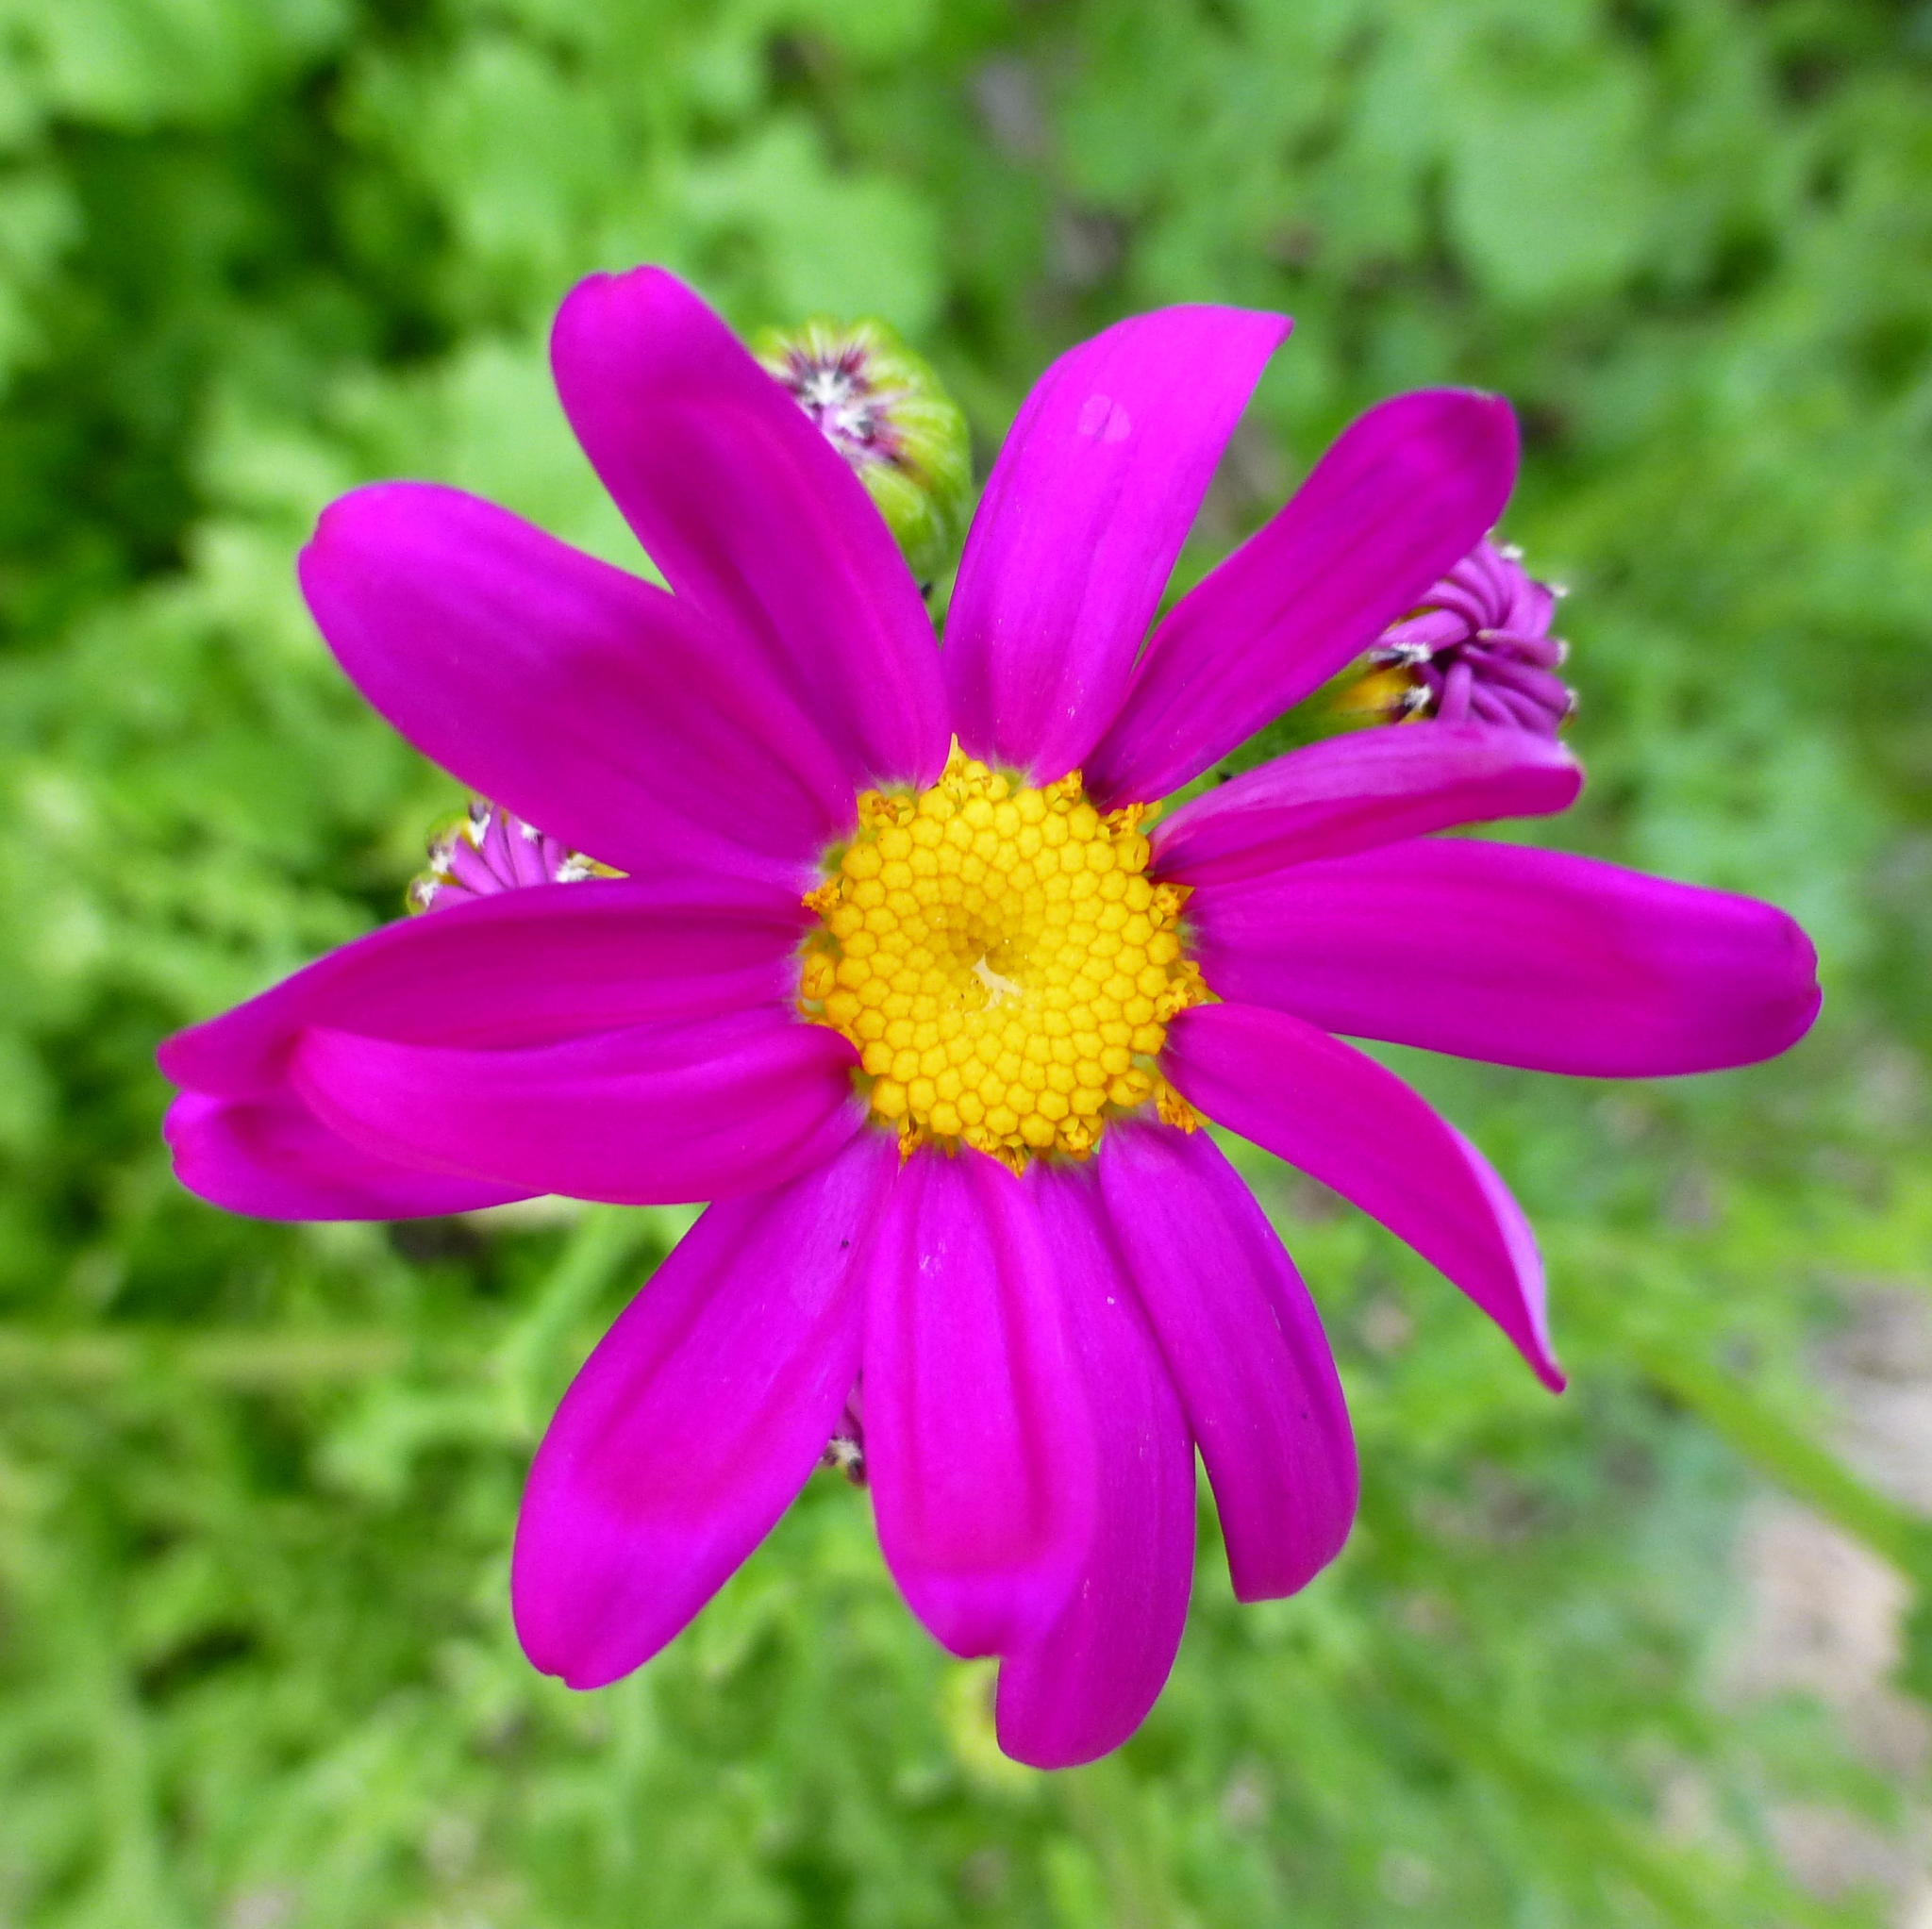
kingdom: Plantae
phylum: Tracheophyta
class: Magnoliopsida
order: Asterales
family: Asteraceae
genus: Senecio
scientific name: Senecio elegans
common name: Purple groundsel
